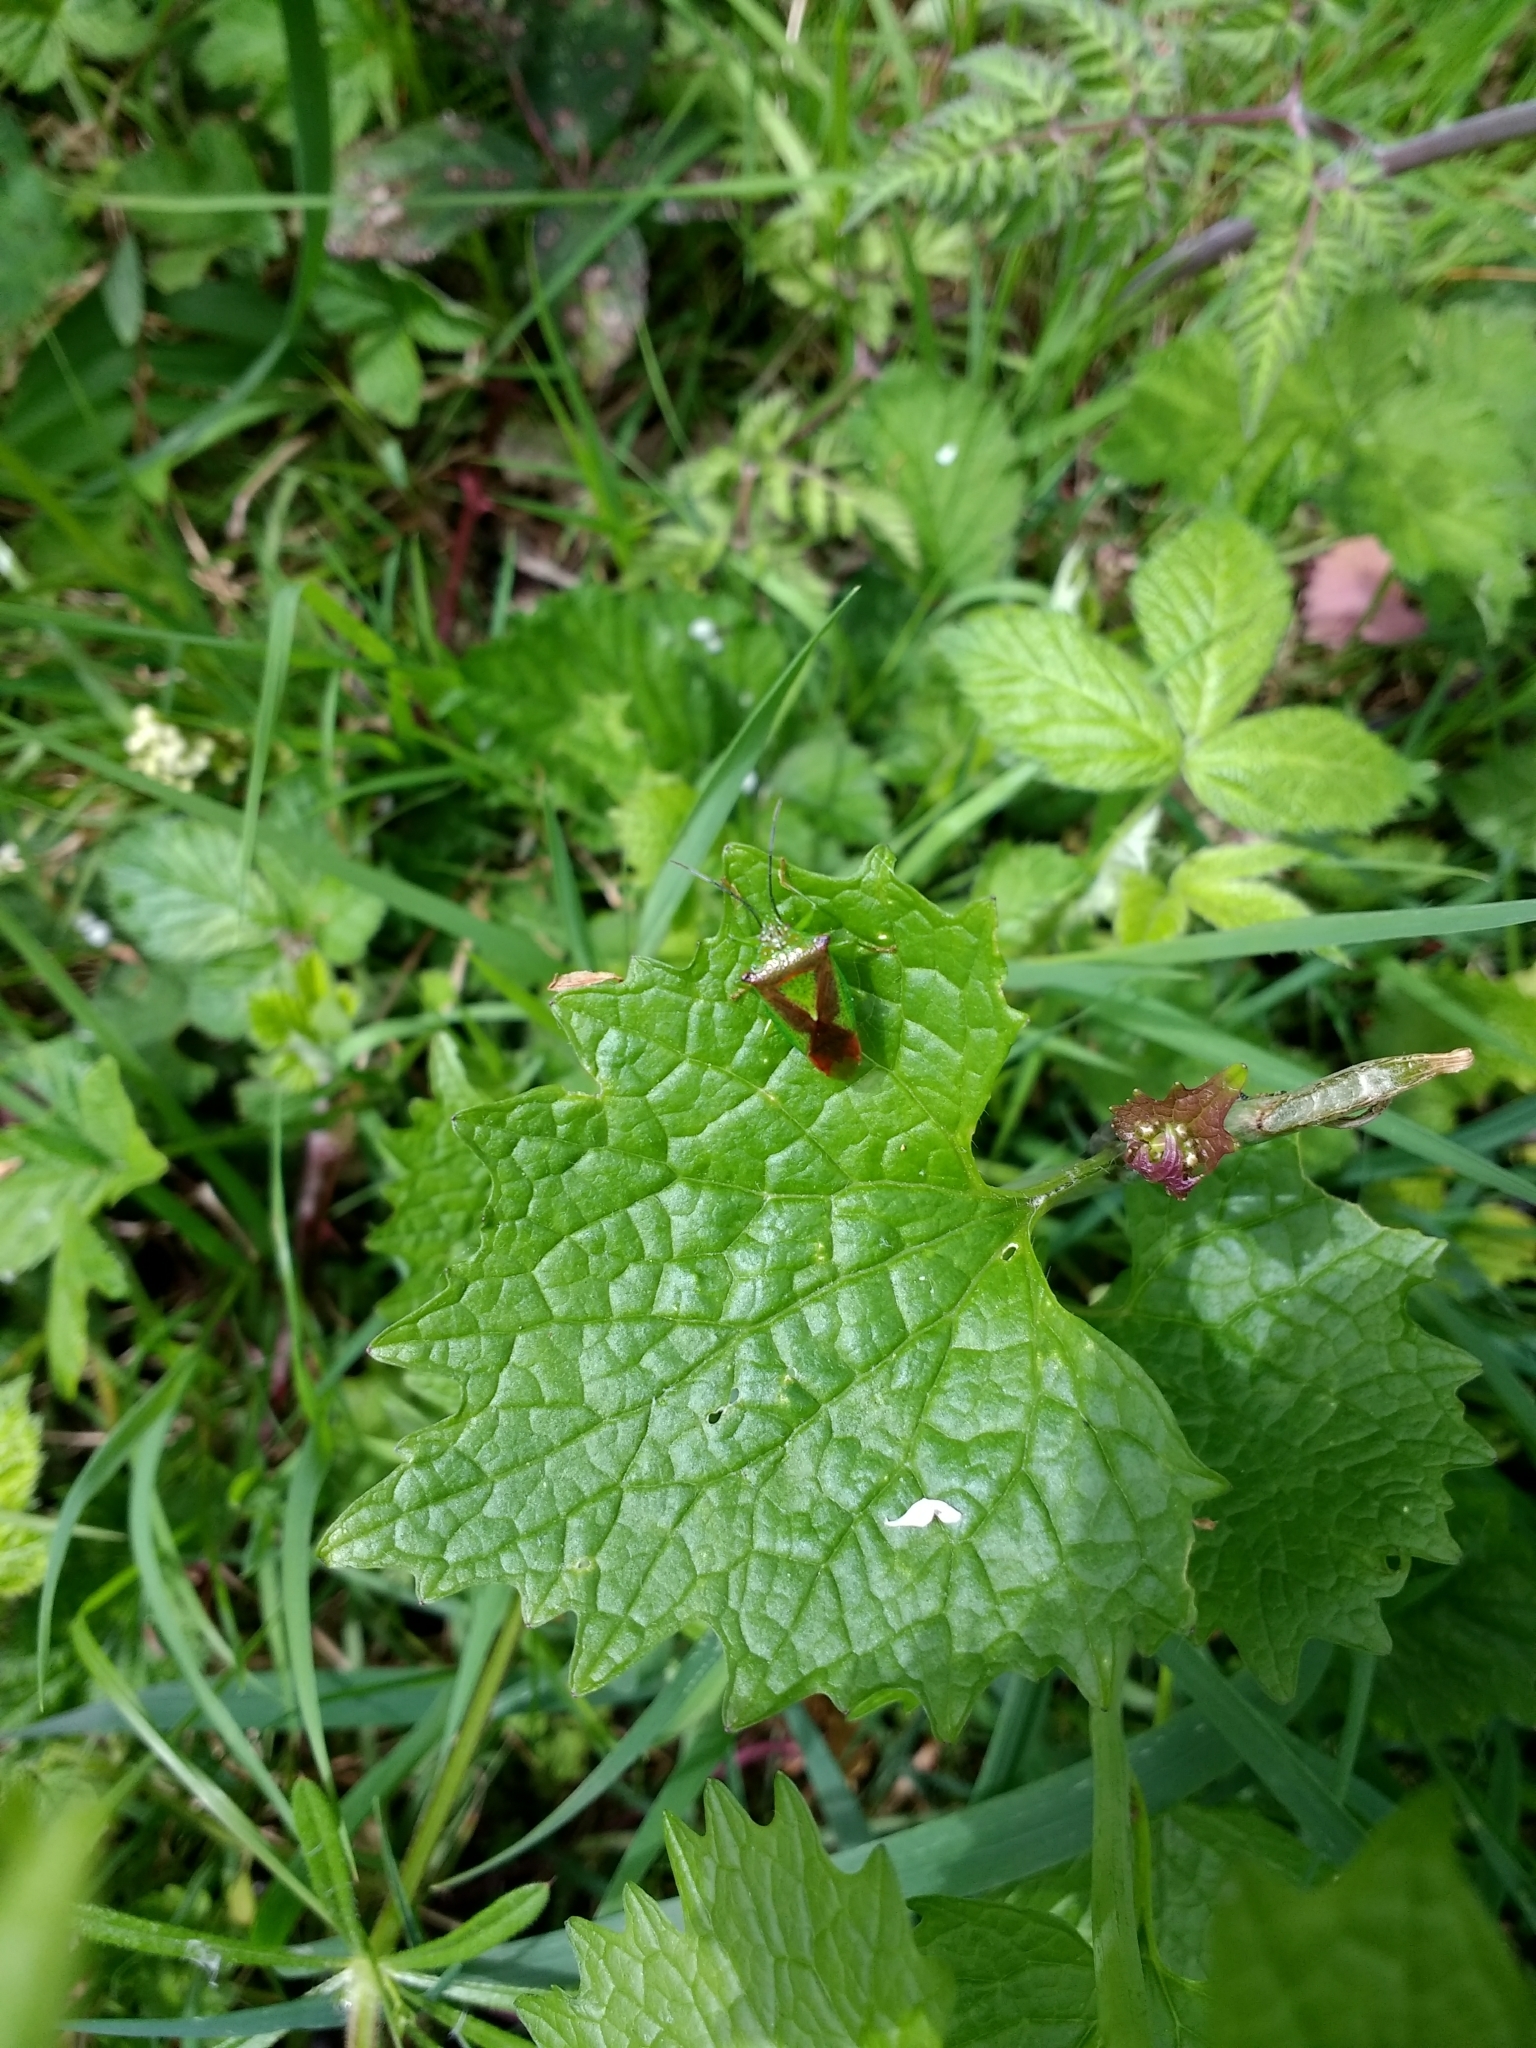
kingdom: Plantae
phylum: Tracheophyta
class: Magnoliopsida
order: Brassicales
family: Brassicaceae
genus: Alliaria
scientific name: Alliaria petiolata
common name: Garlic mustard
